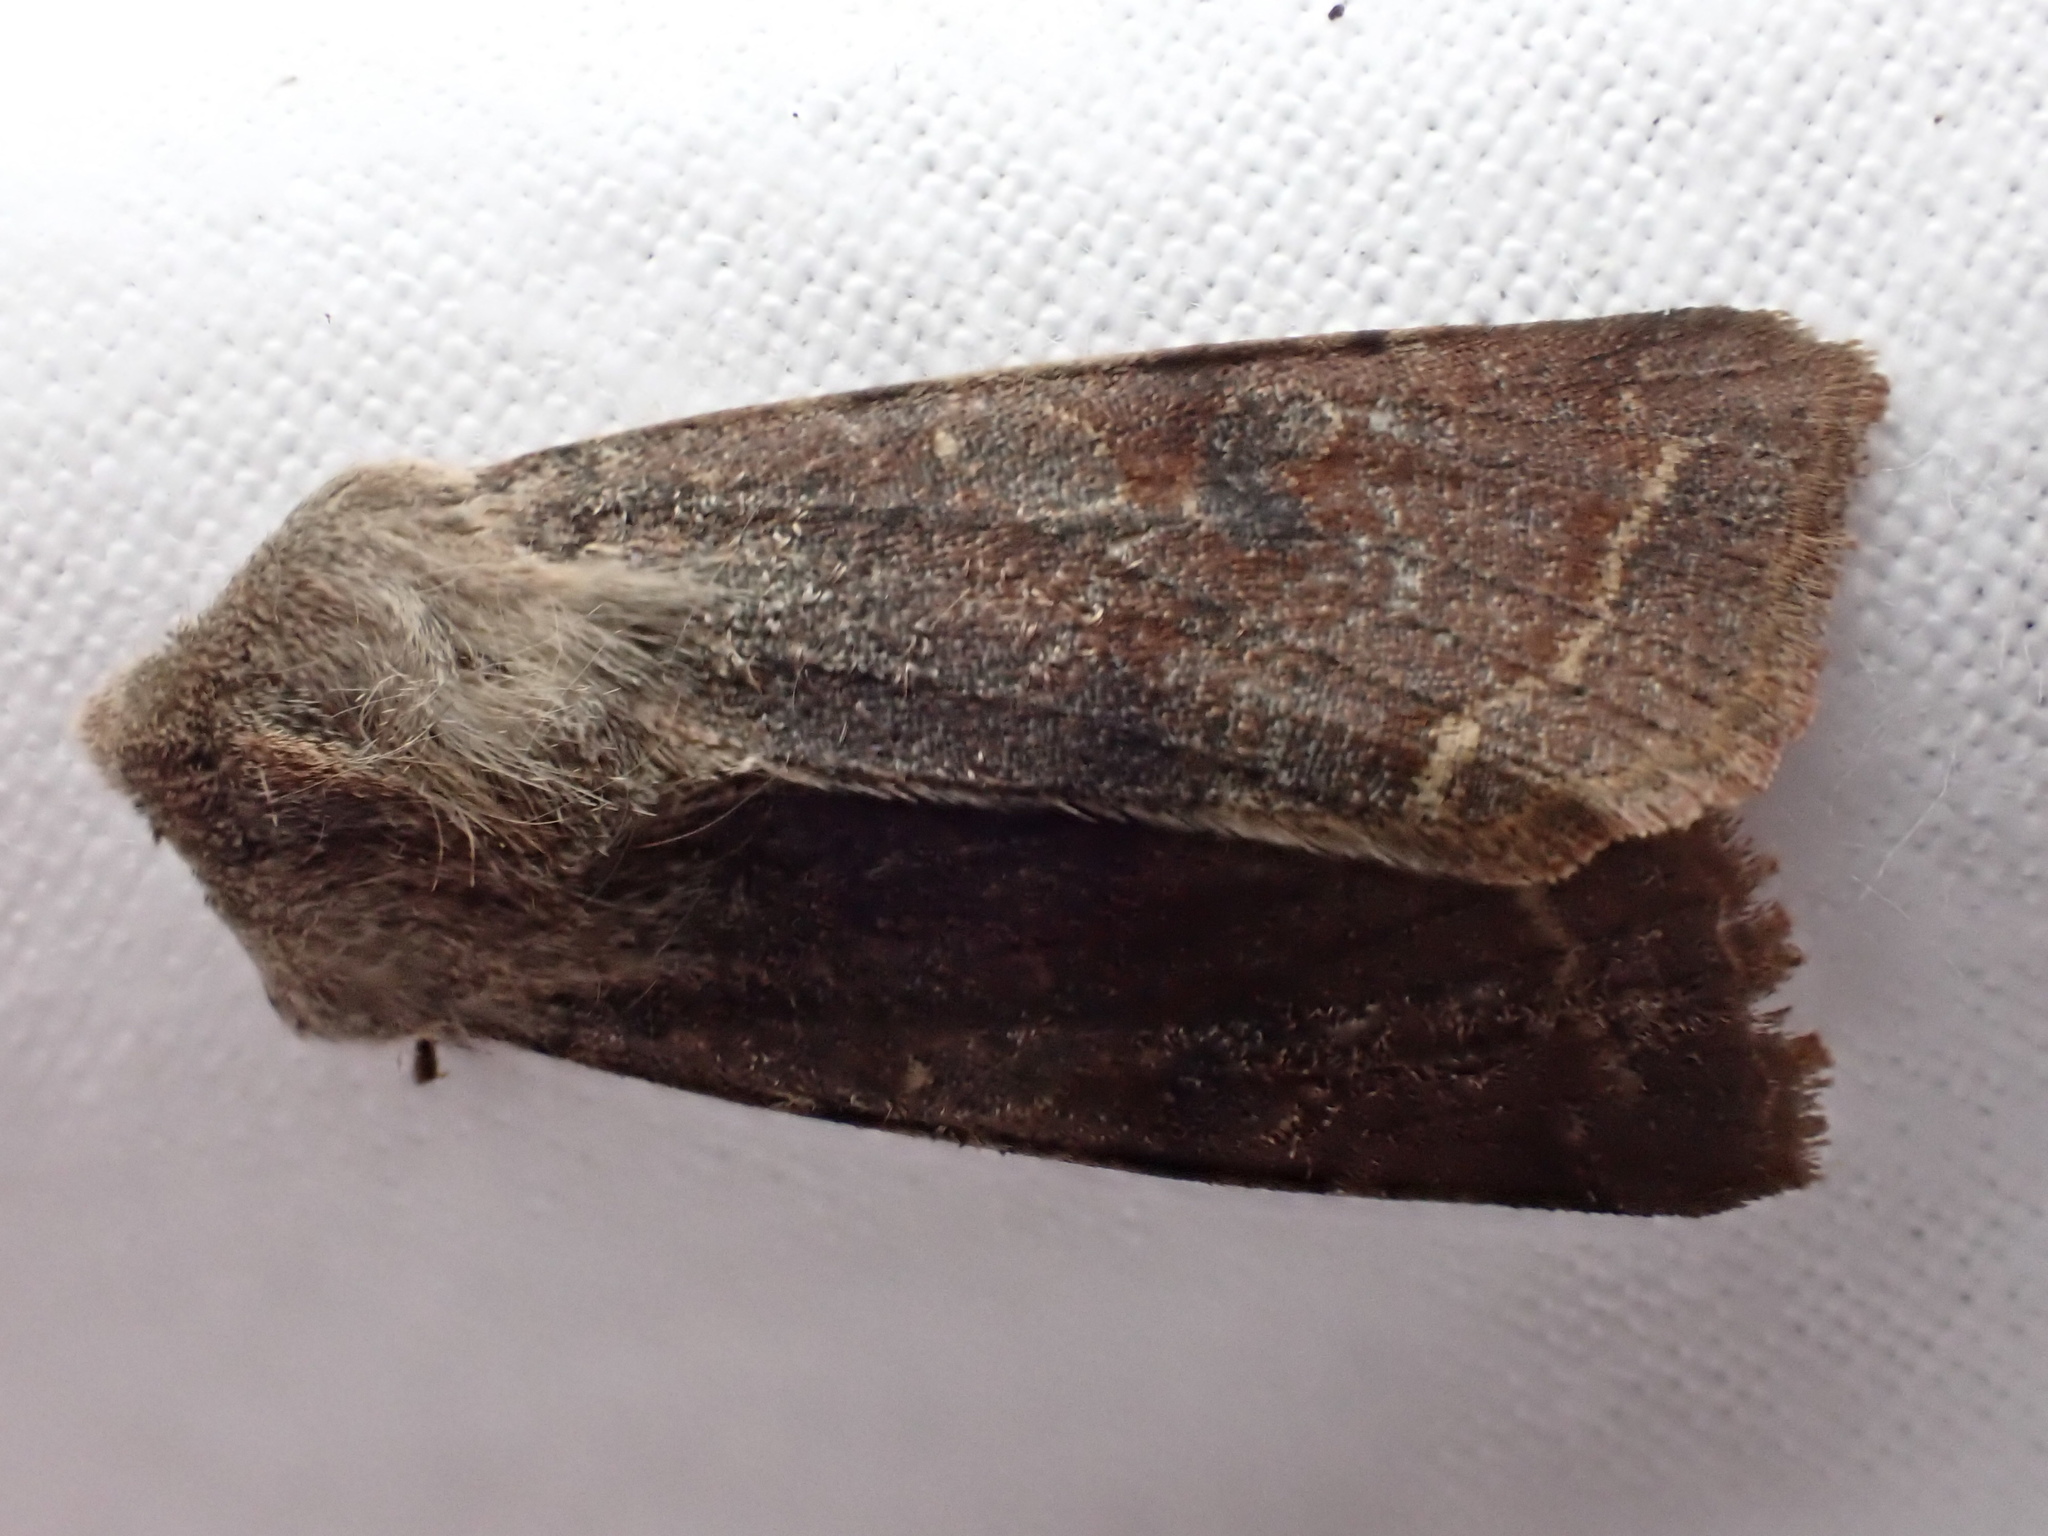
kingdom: Animalia
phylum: Arthropoda
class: Insecta
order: Lepidoptera
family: Noctuidae
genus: Orthosia
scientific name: Orthosia incerta
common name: Clouded drab
